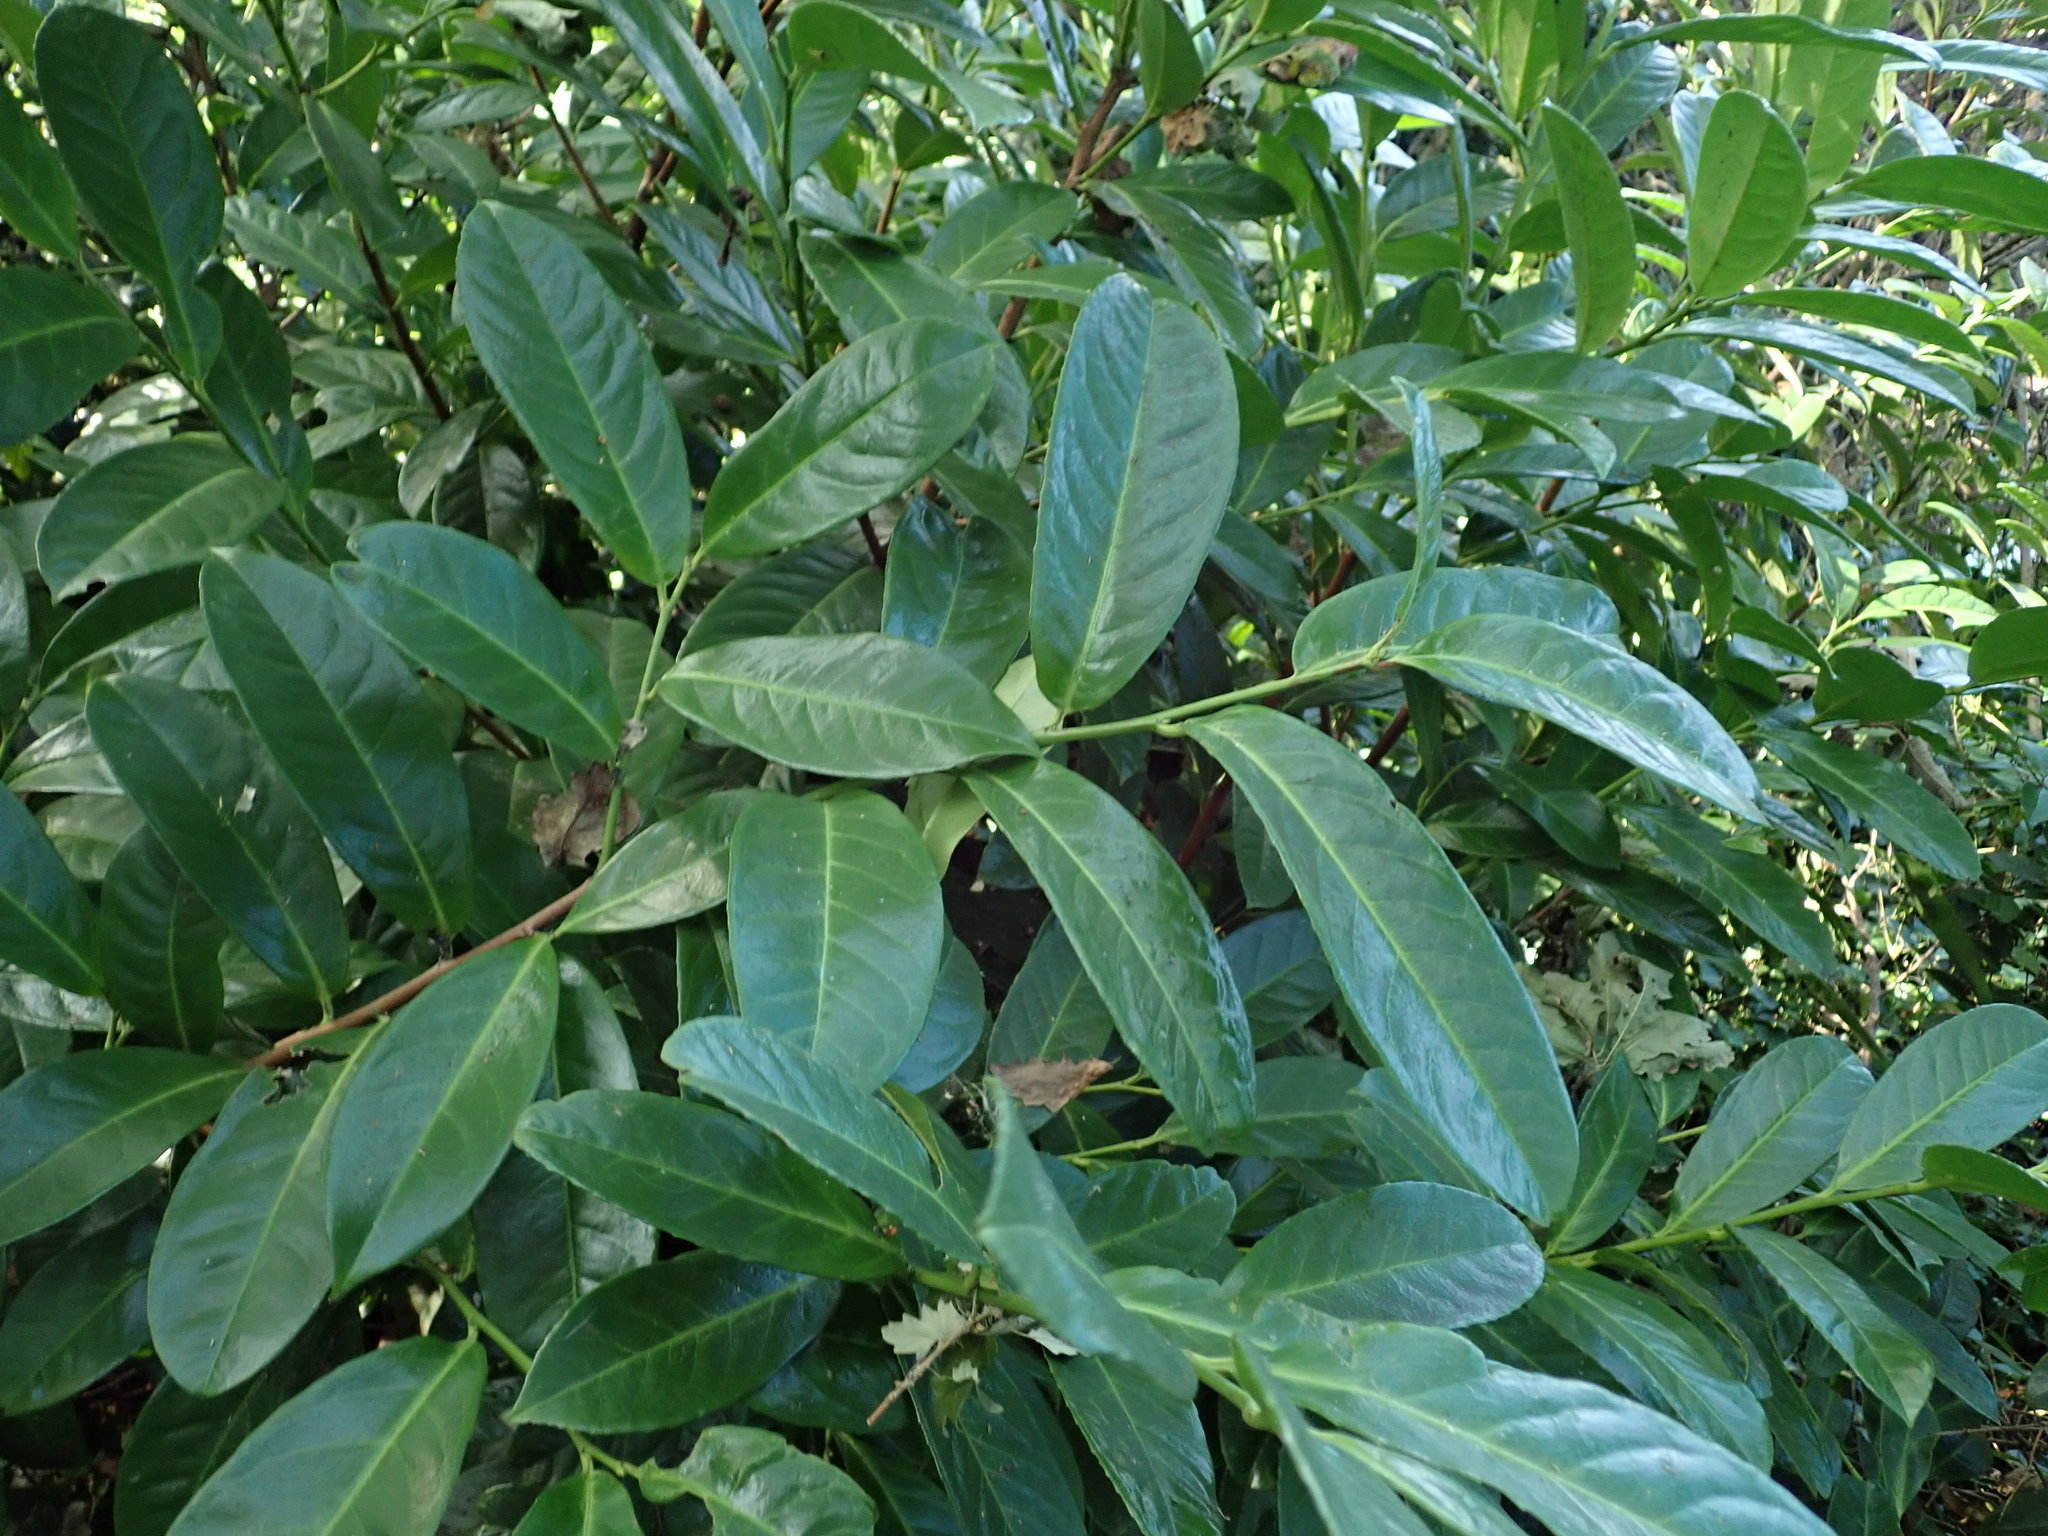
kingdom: Plantae
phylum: Tracheophyta
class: Magnoliopsida
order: Rosales
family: Rosaceae
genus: Prunus
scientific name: Prunus laurocerasus
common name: Cherry laurel
